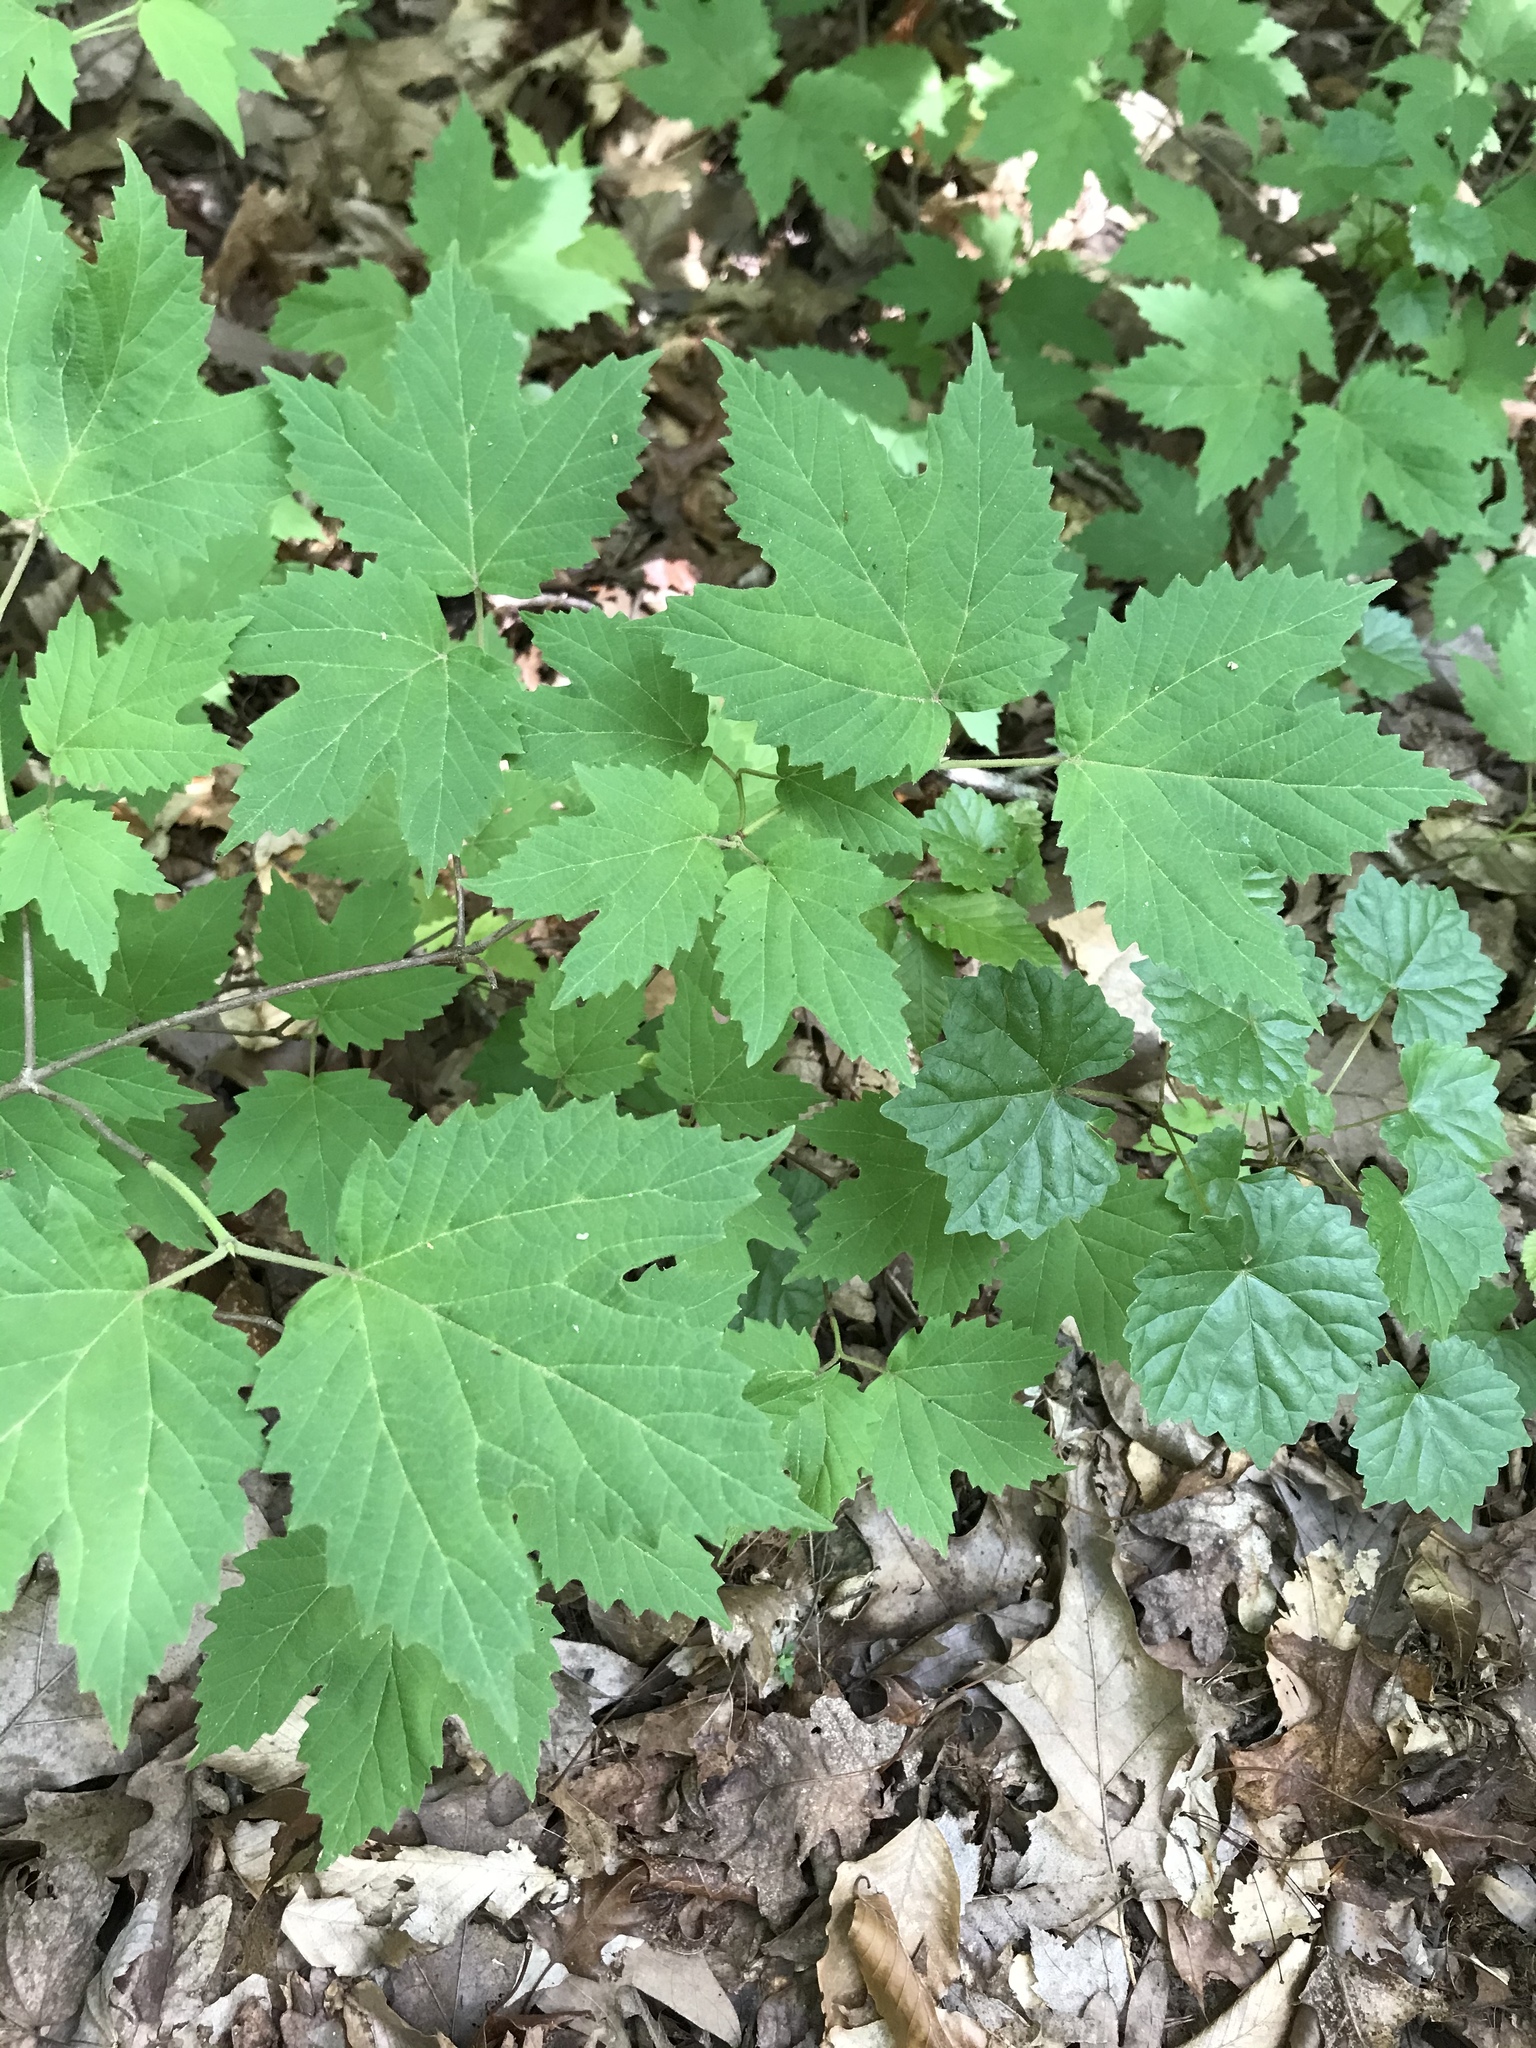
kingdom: Plantae
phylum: Tracheophyta
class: Magnoliopsida
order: Dipsacales
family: Viburnaceae
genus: Viburnum
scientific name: Viburnum acerifolium
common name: Dockmackie
